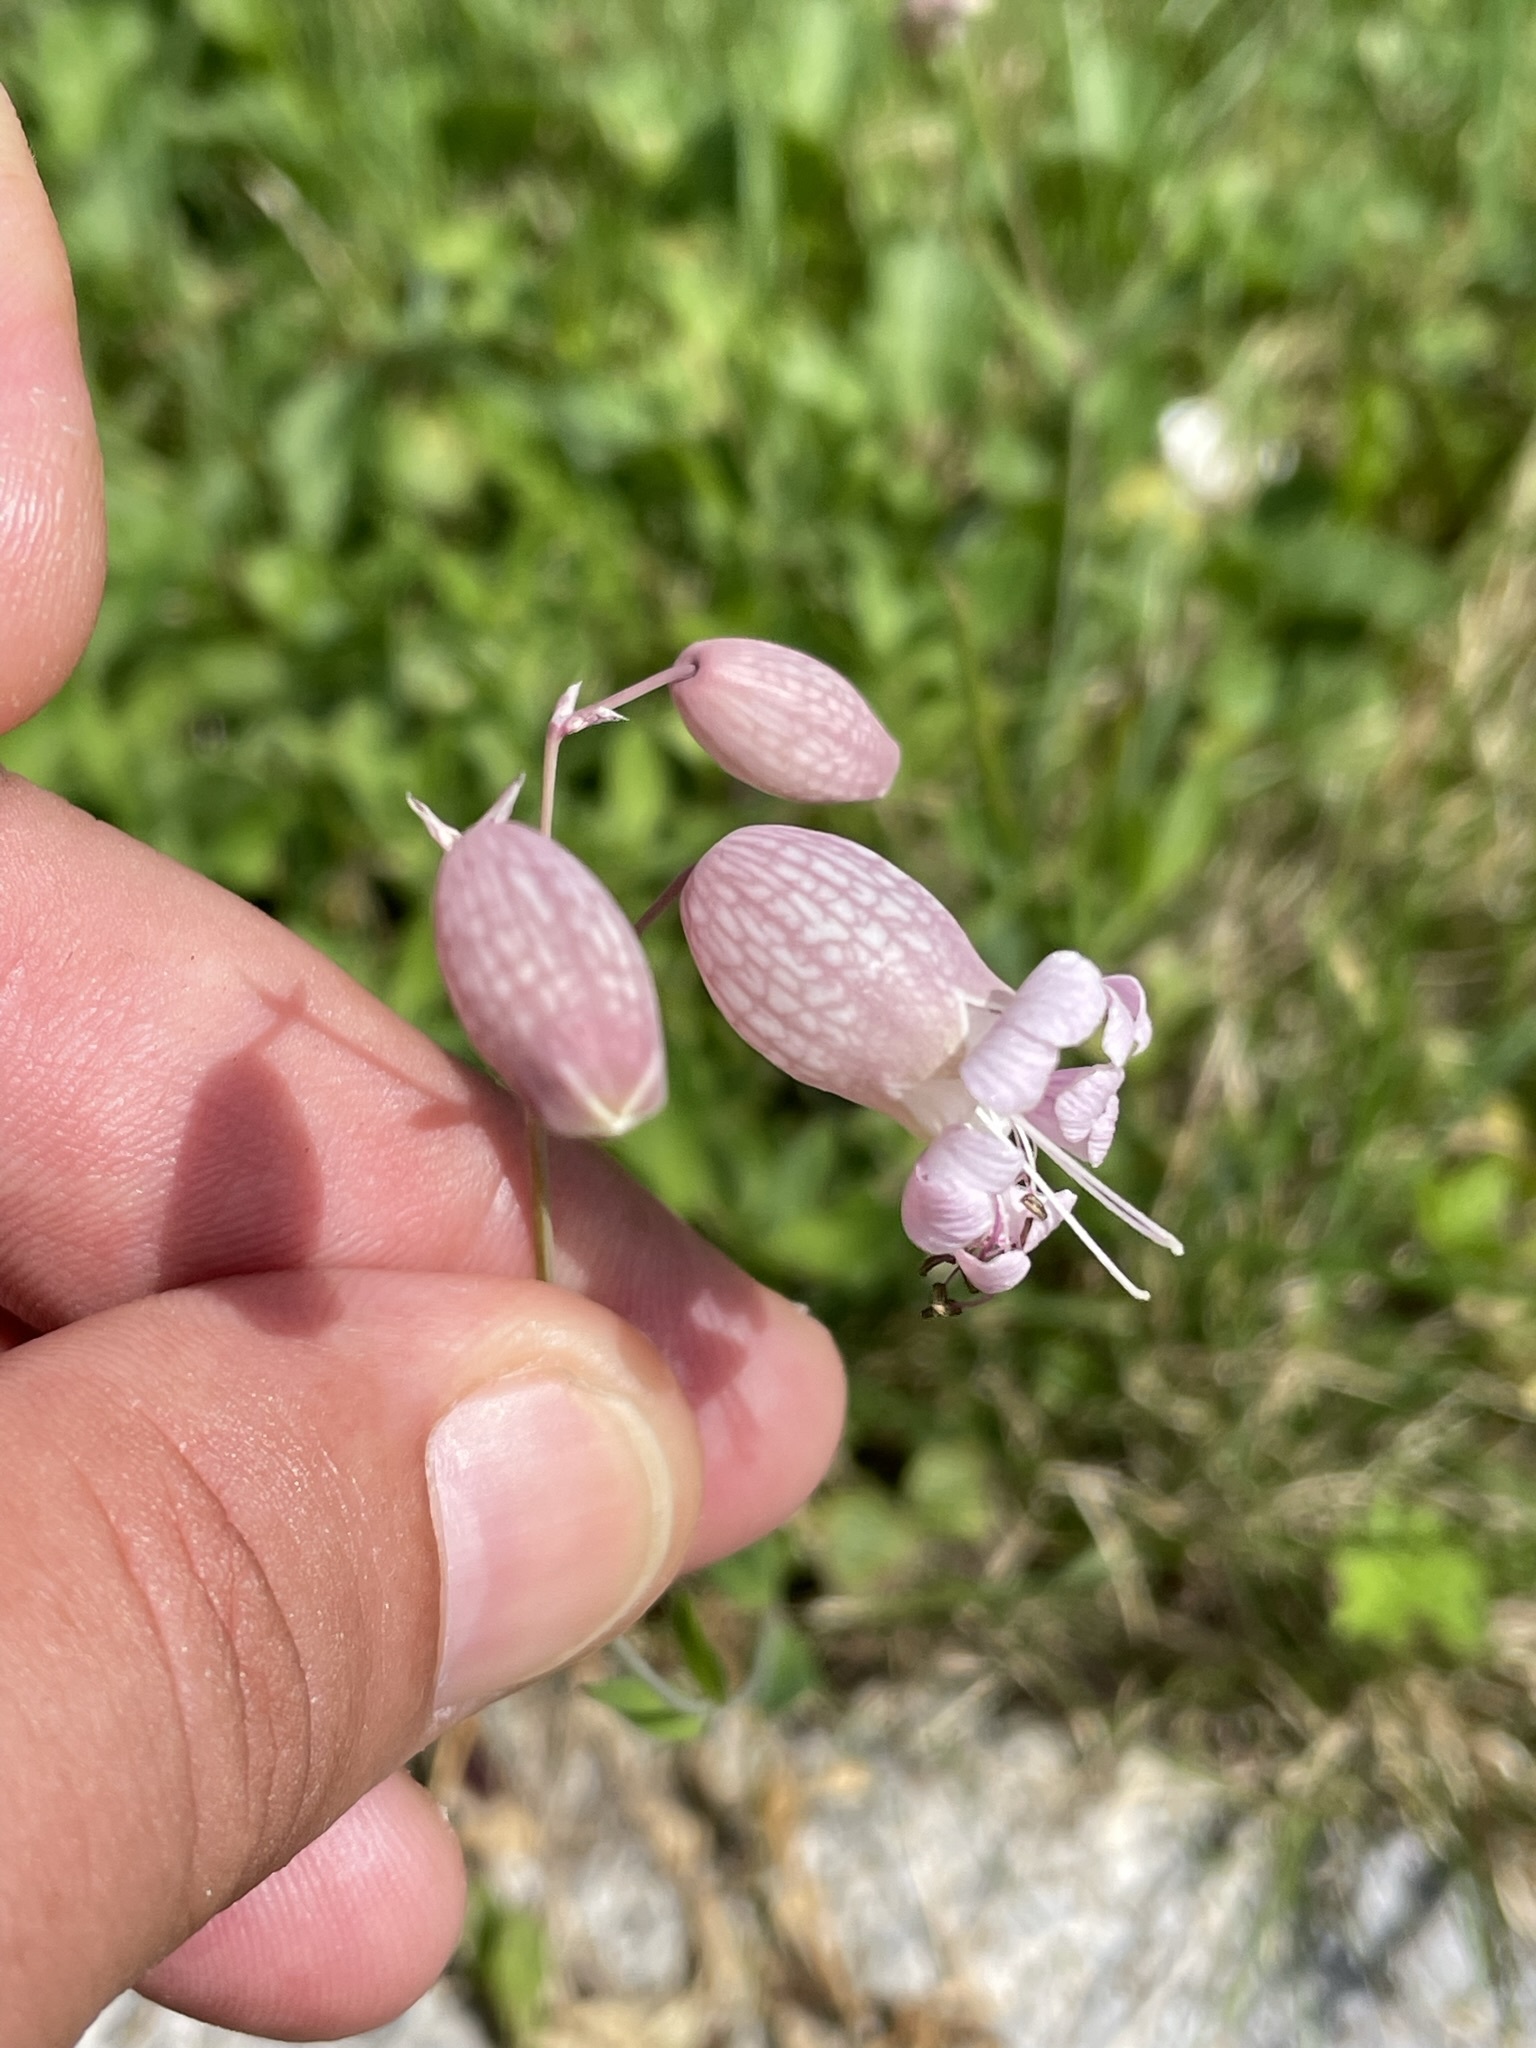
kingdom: Plantae
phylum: Tracheophyta
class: Magnoliopsida
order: Caryophyllales
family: Caryophyllaceae
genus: Silene
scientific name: Silene vulgaris
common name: Bladder campion
